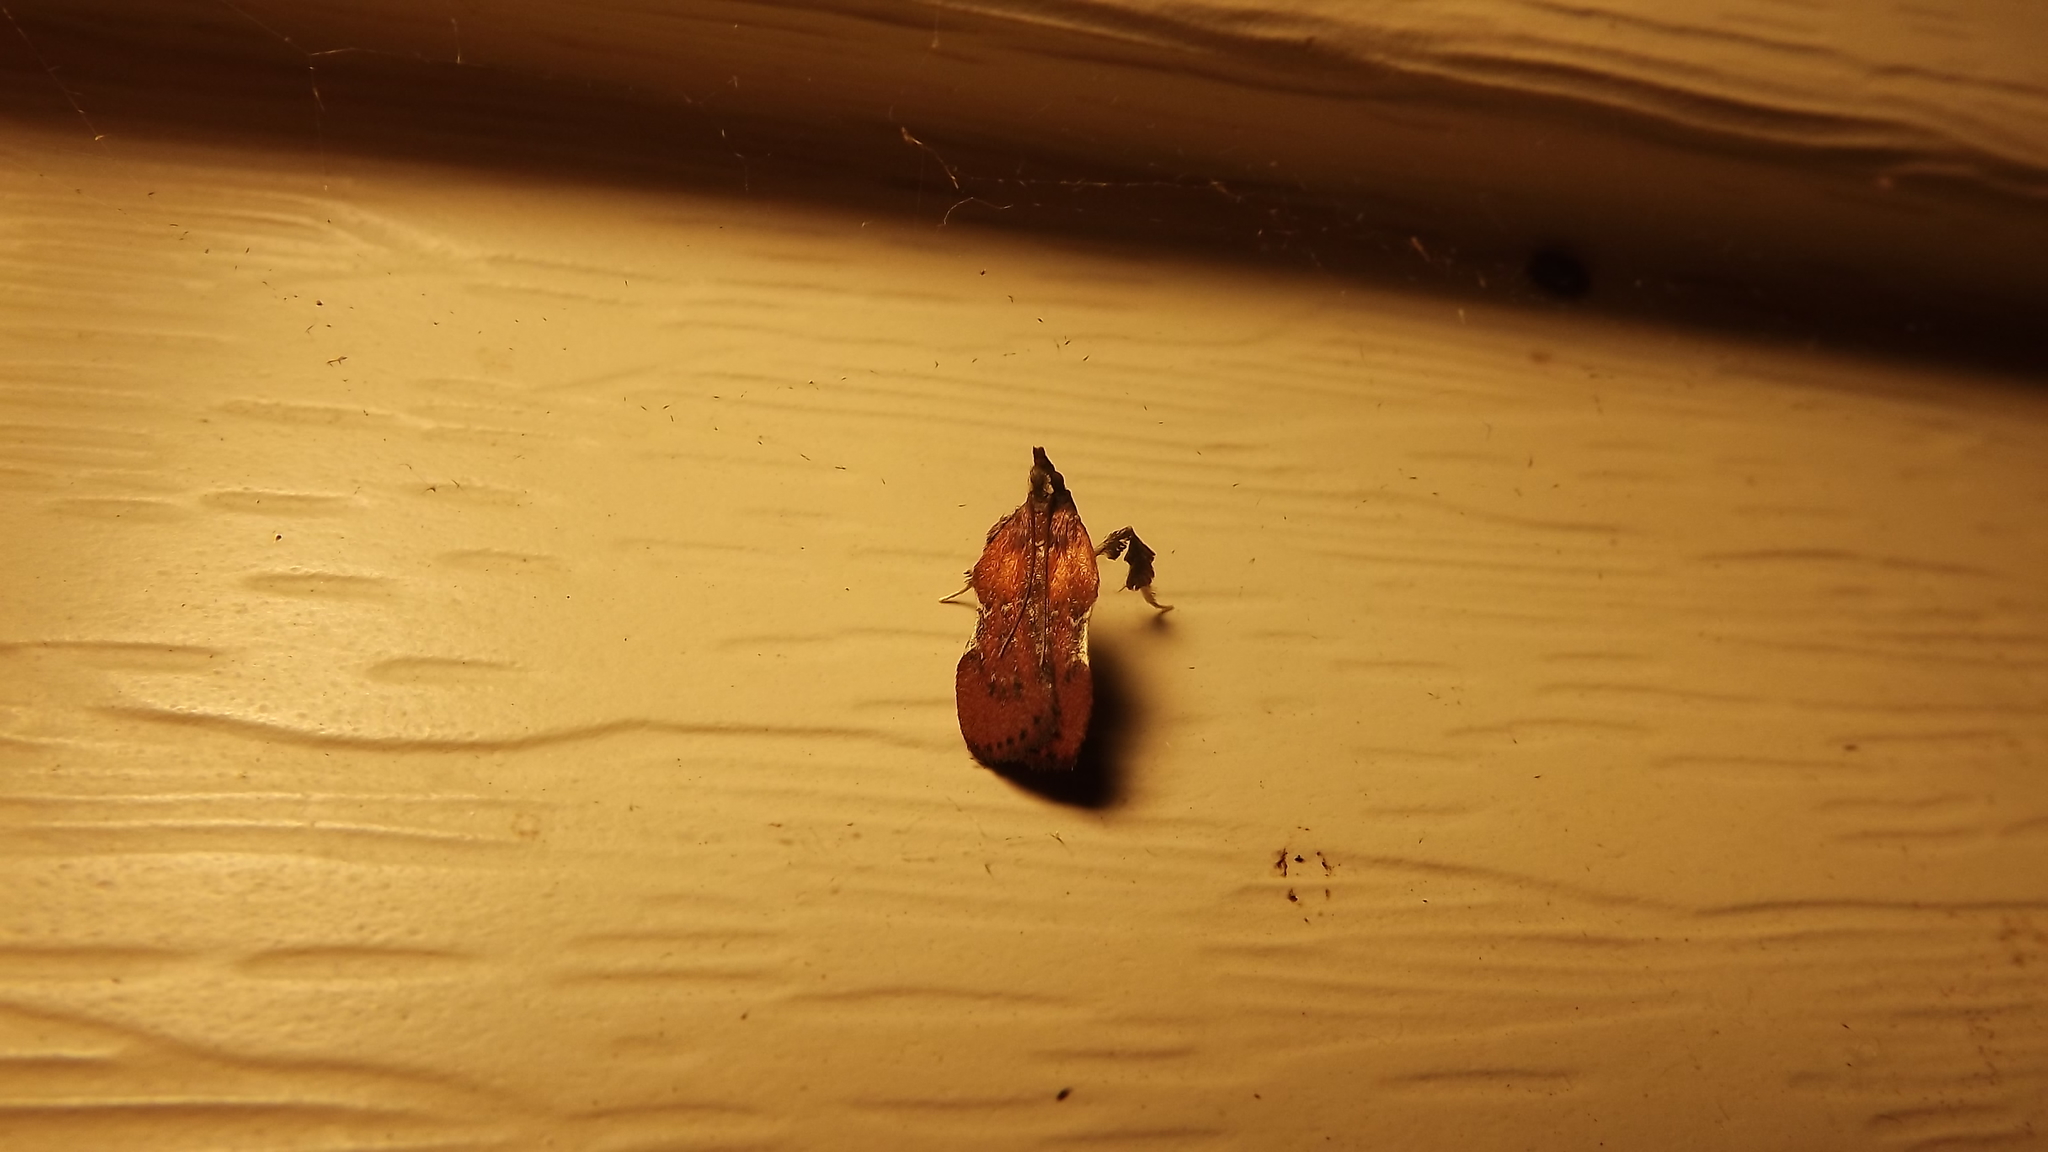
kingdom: Animalia
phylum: Arthropoda
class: Insecta
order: Lepidoptera
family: Pyralidae
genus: Galasa
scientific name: Galasa nigrinodis
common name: Boxwood leaftier moth
